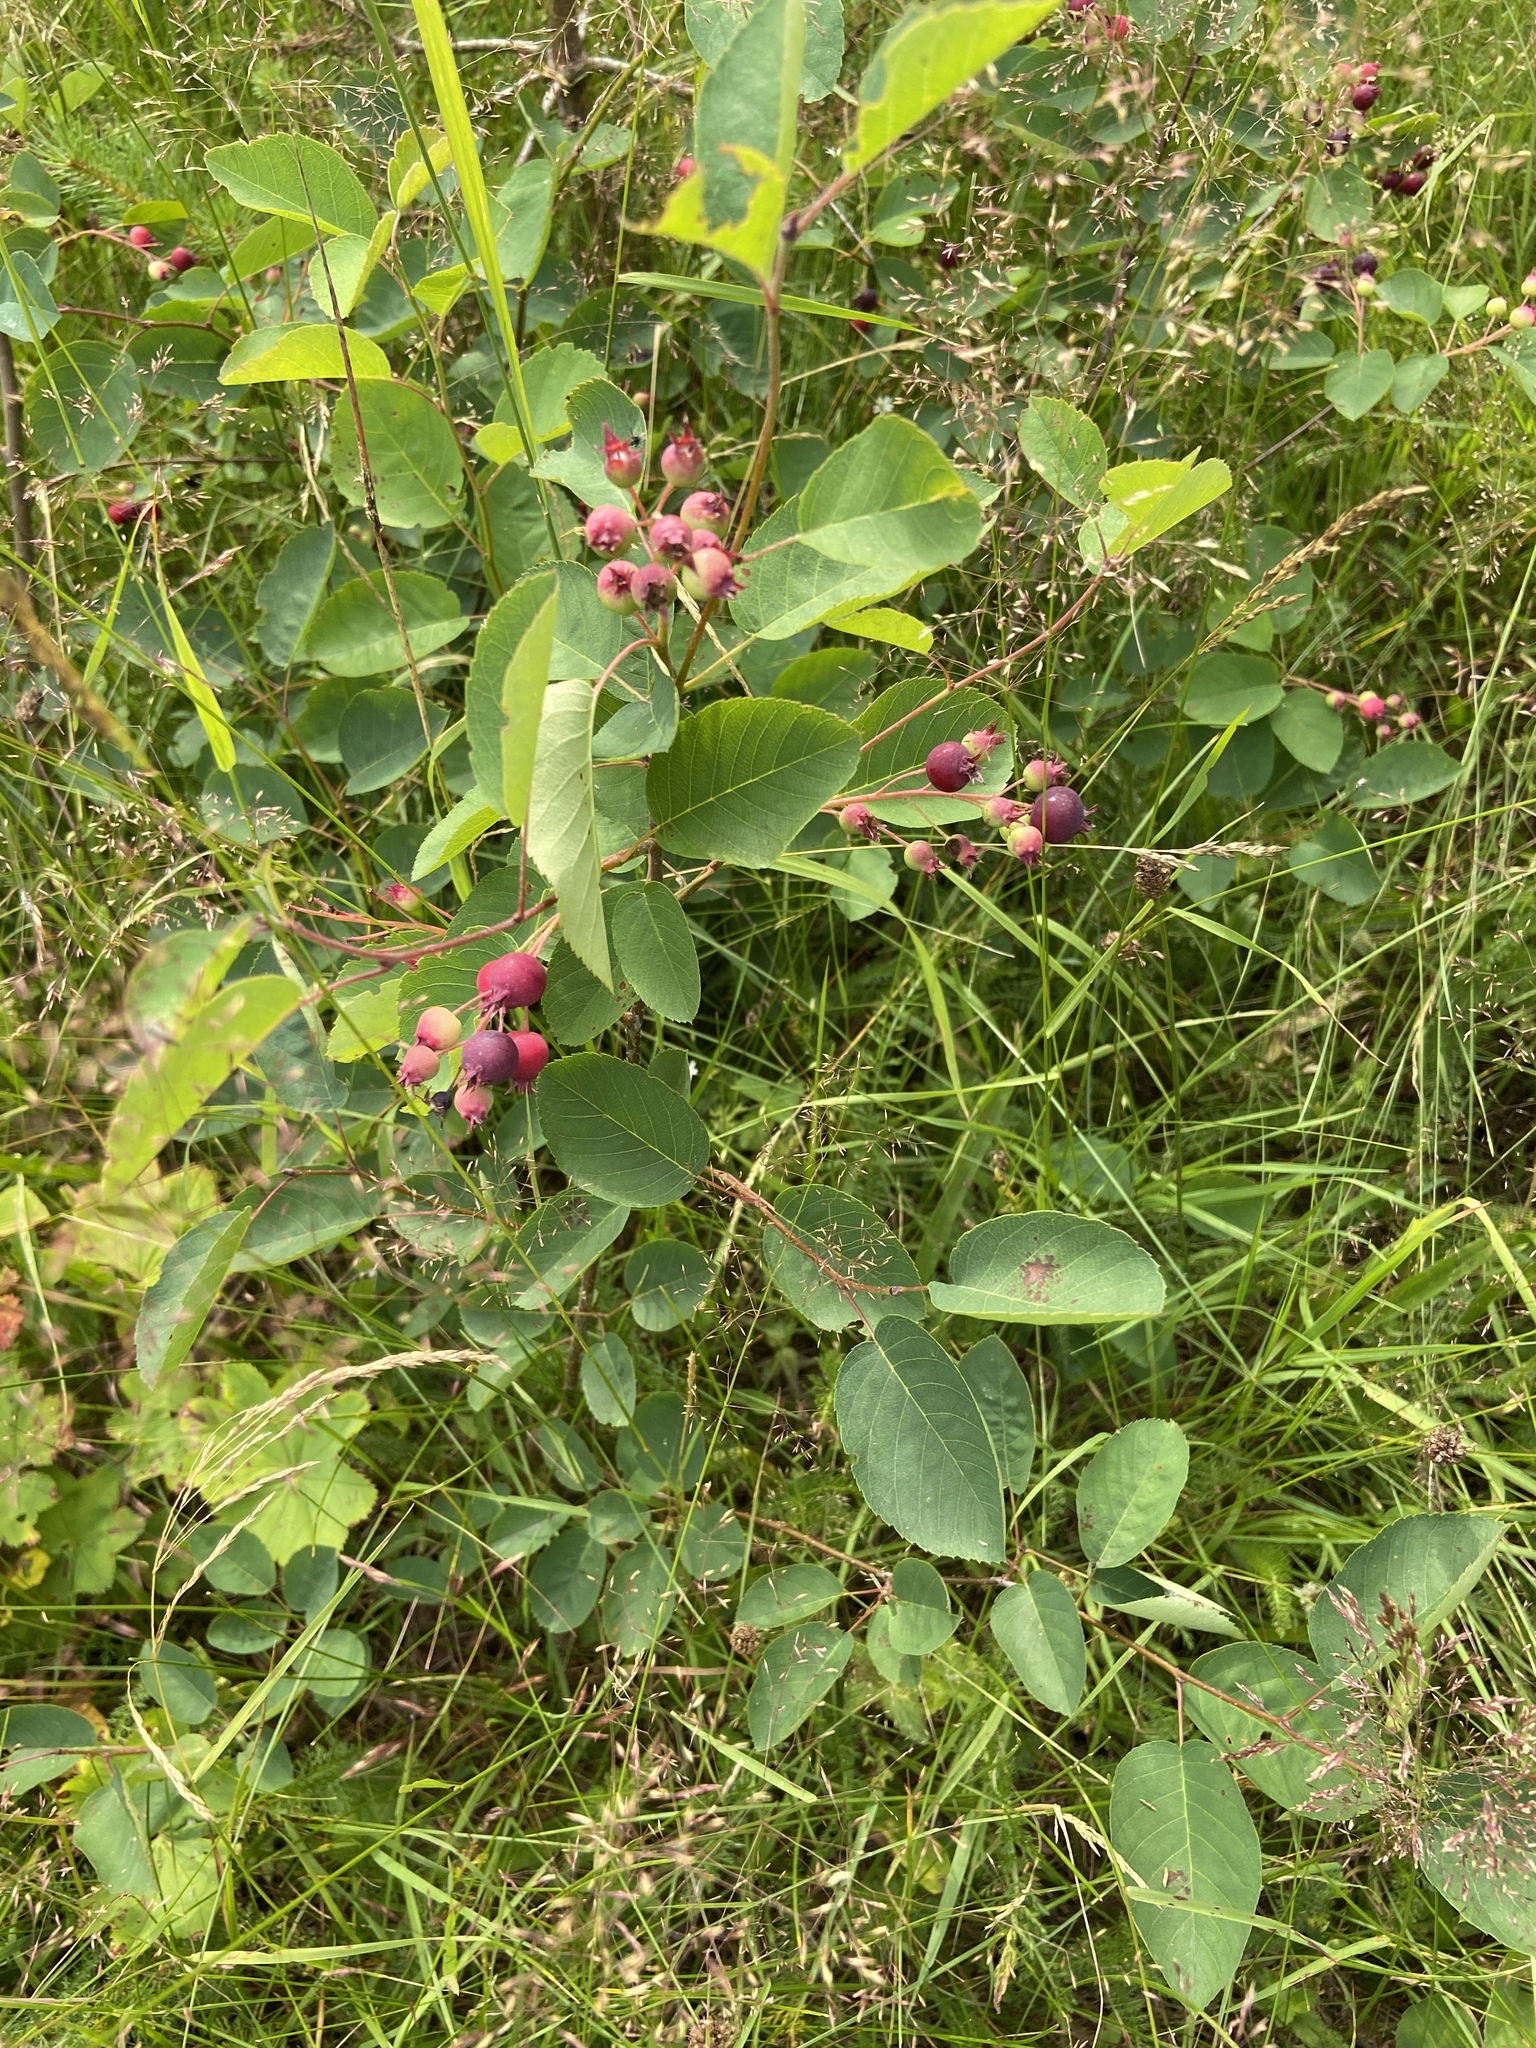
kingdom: Plantae
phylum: Tracheophyta
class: Magnoliopsida
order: Rosales
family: Rosaceae
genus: Amelanchier
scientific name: Amelanchier
